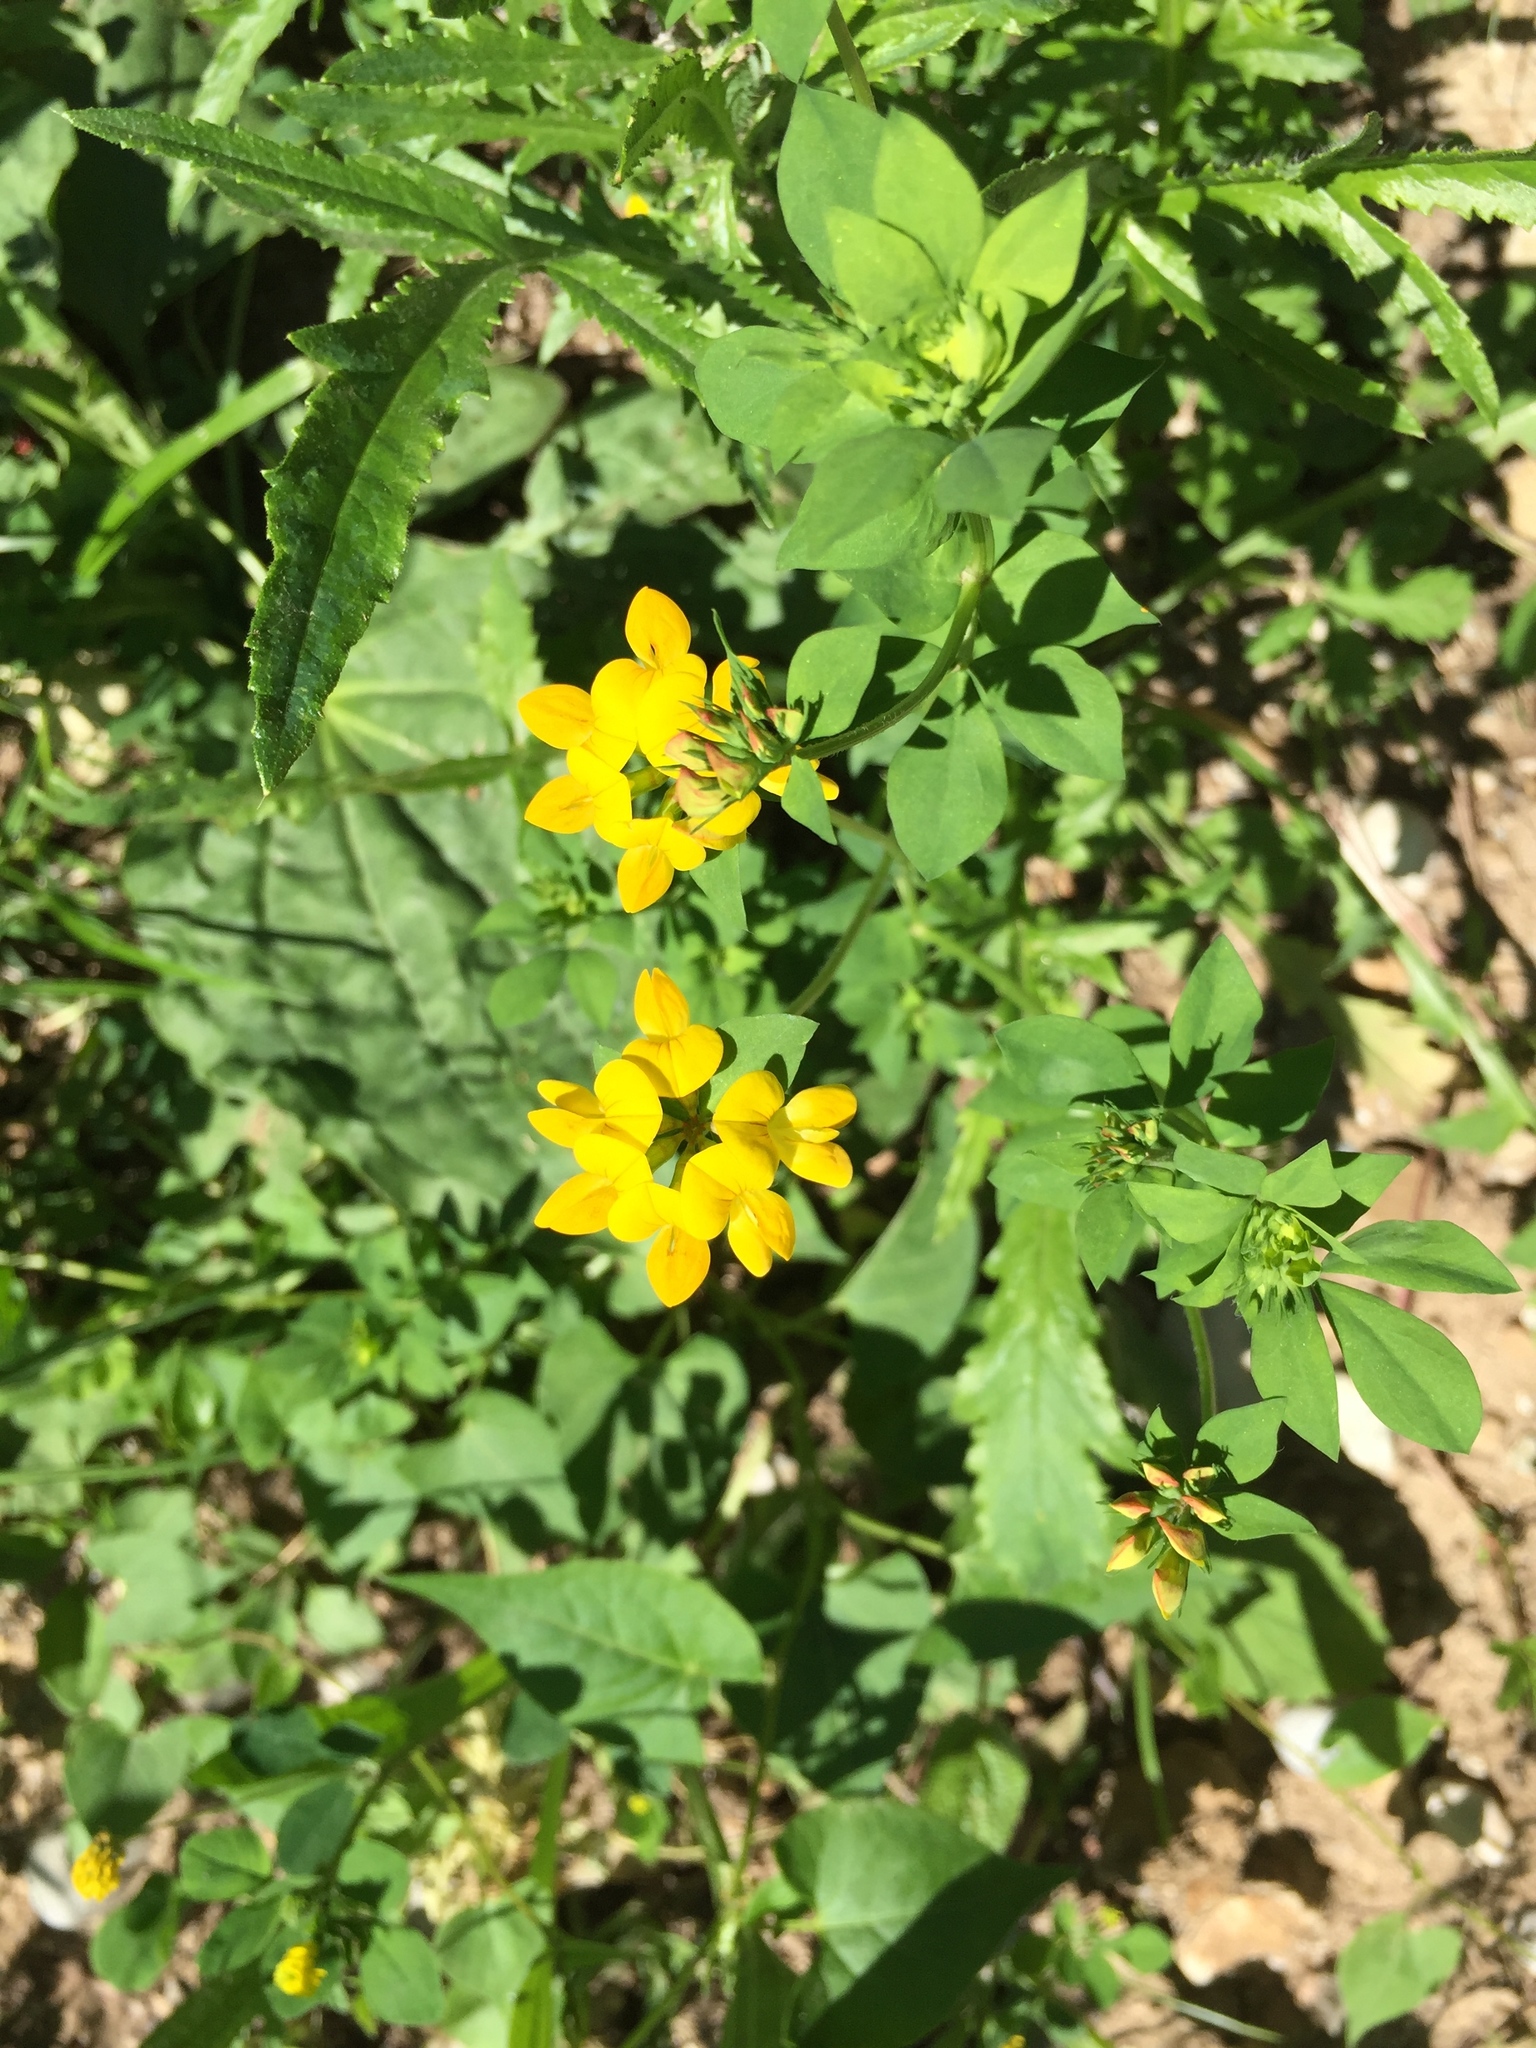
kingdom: Plantae
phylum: Tracheophyta
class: Magnoliopsida
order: Fabales
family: Fabaceae
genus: Lotus
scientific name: Lotus corniculatus
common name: Common bird's-foot-trefoil
